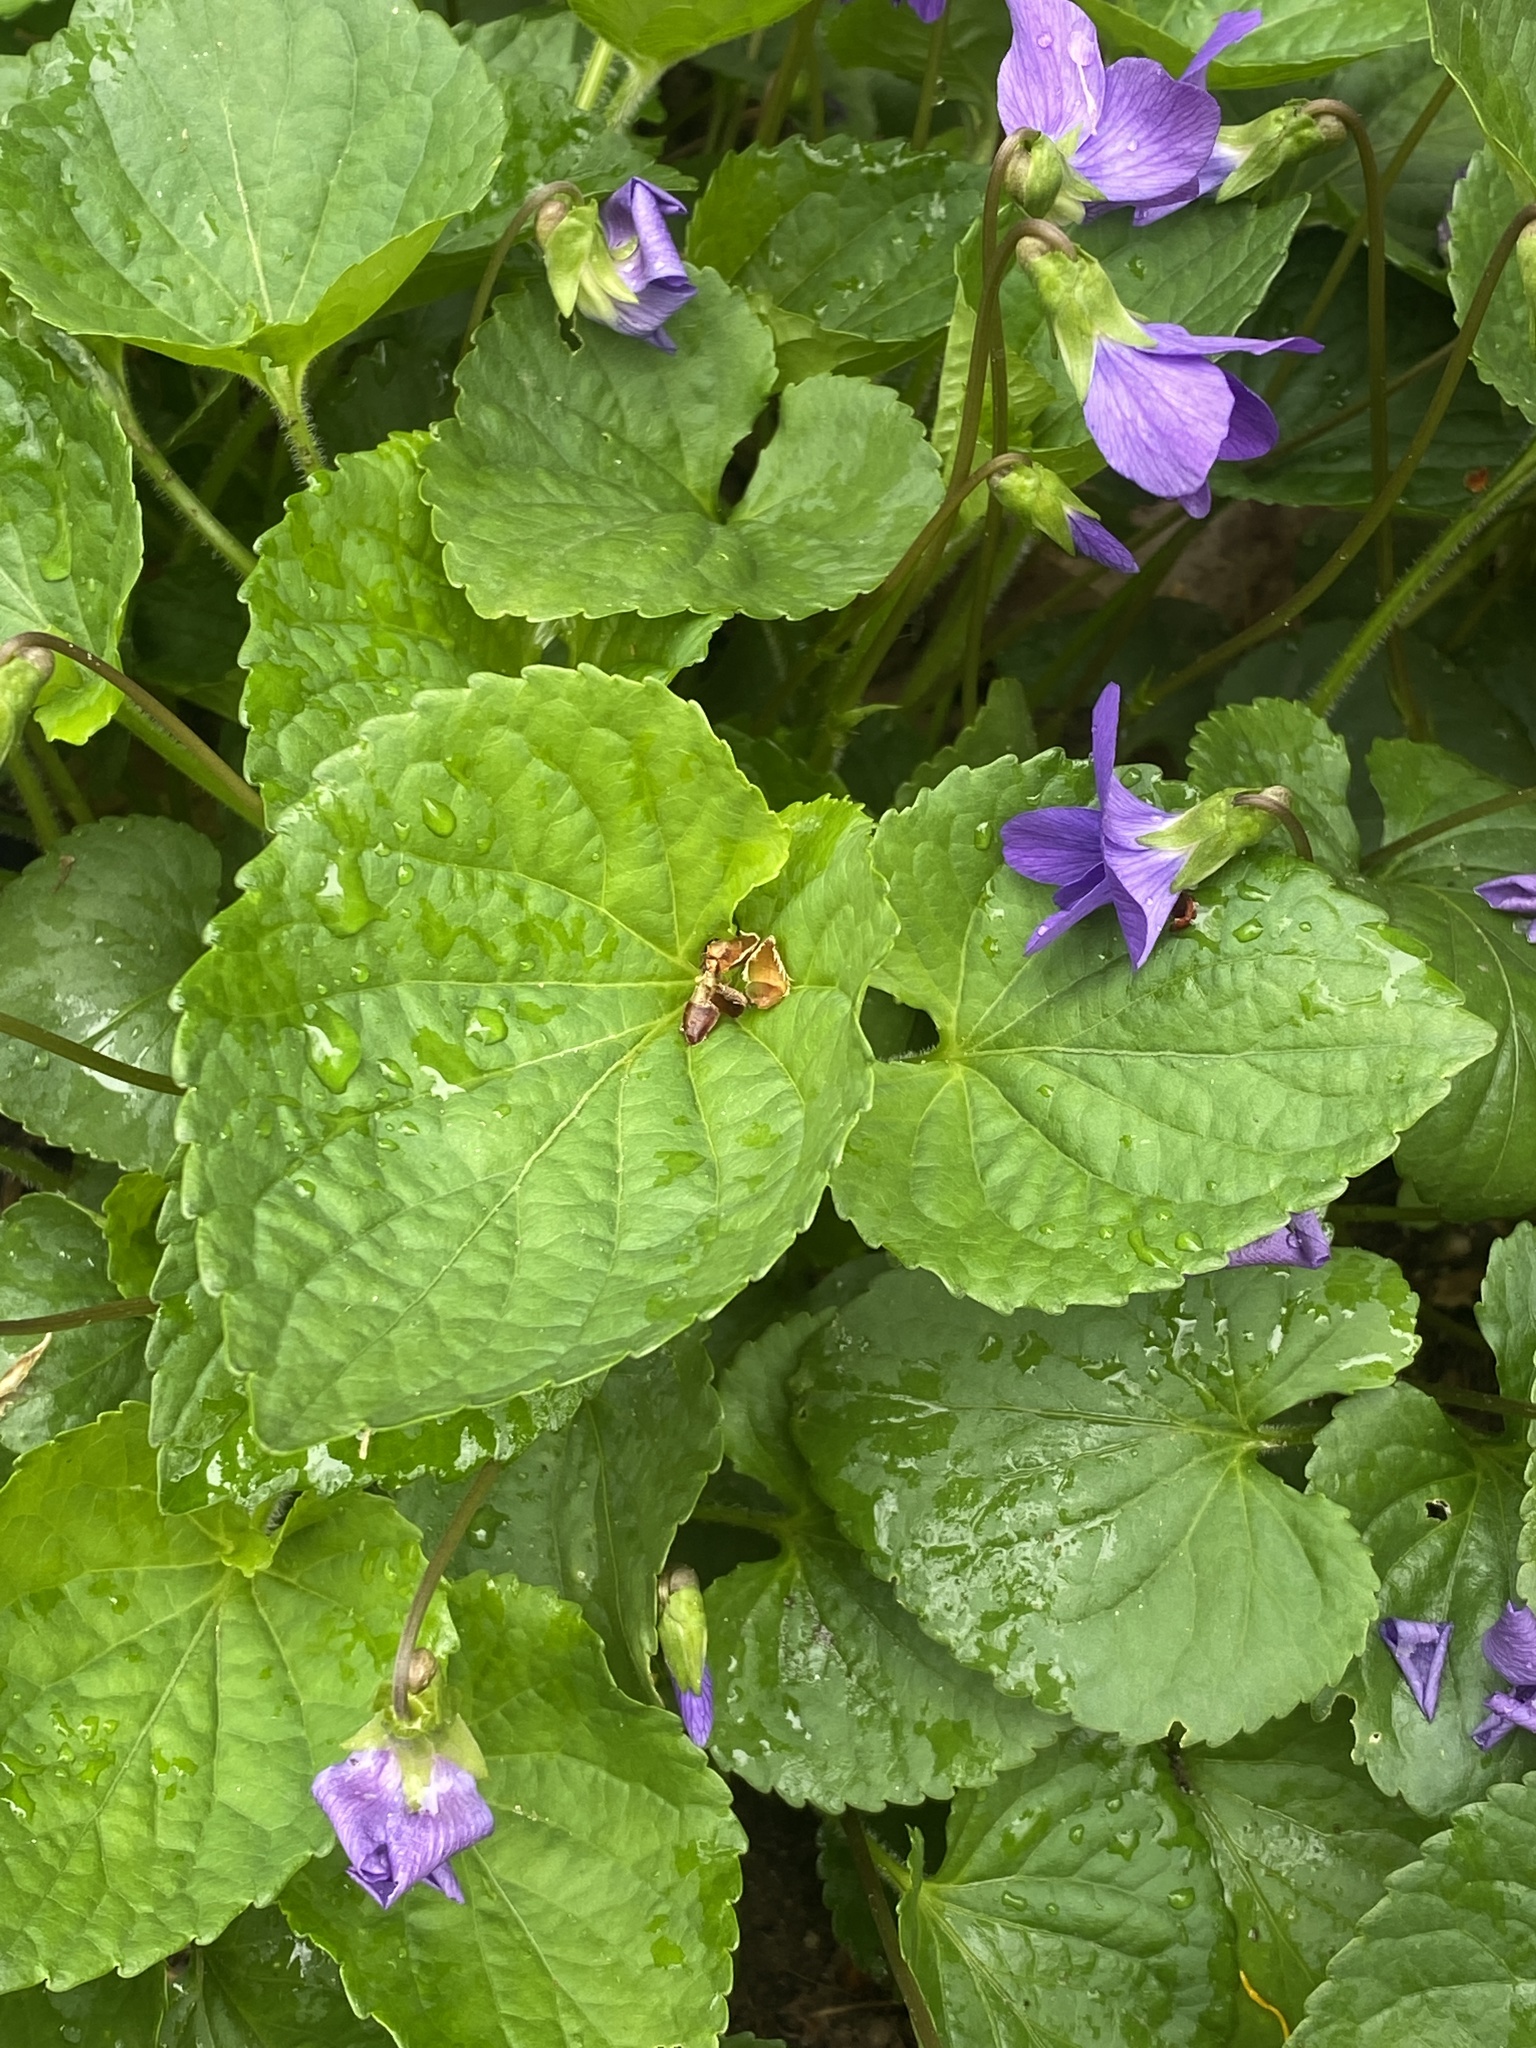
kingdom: Plantae
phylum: Tracheophyta
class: Magnoliopsida
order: Malpighiales
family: Violaceae
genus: Viola
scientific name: Viola sororia
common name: Dooryard violet
